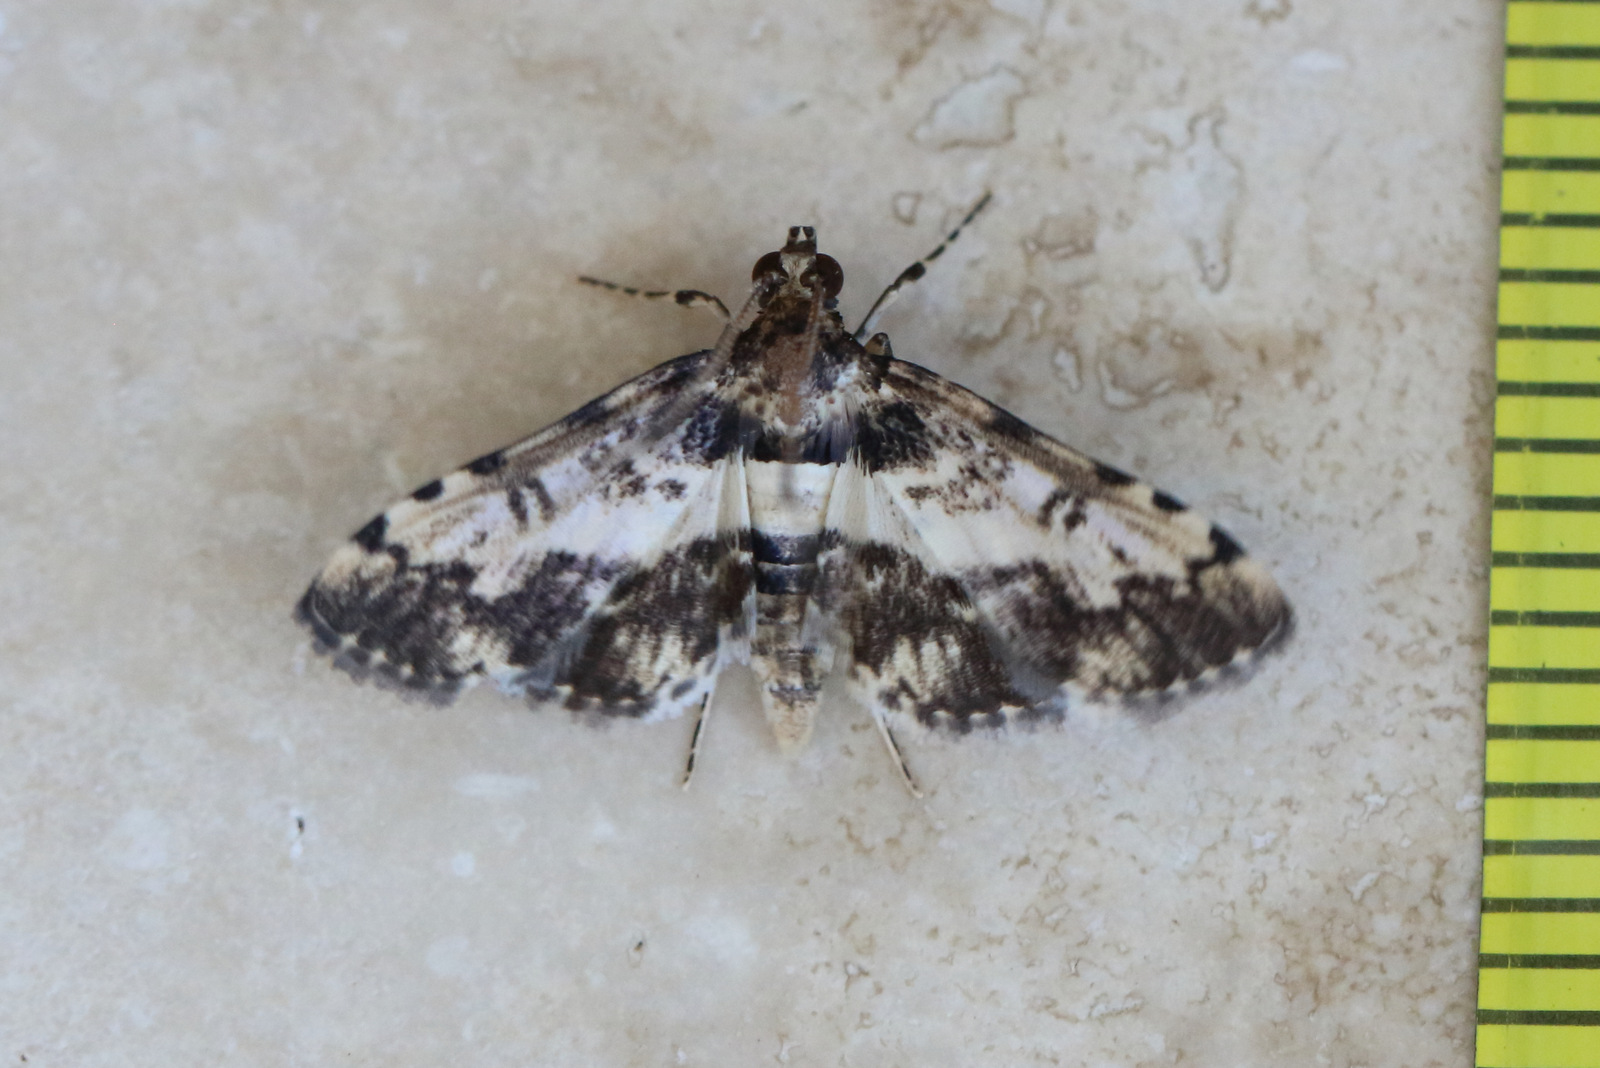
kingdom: Animalia
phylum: Arthropoda
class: Insecta
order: Lepidoptera
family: Crambidae
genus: Nacoleia
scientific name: Nacoleia amphicedalis
